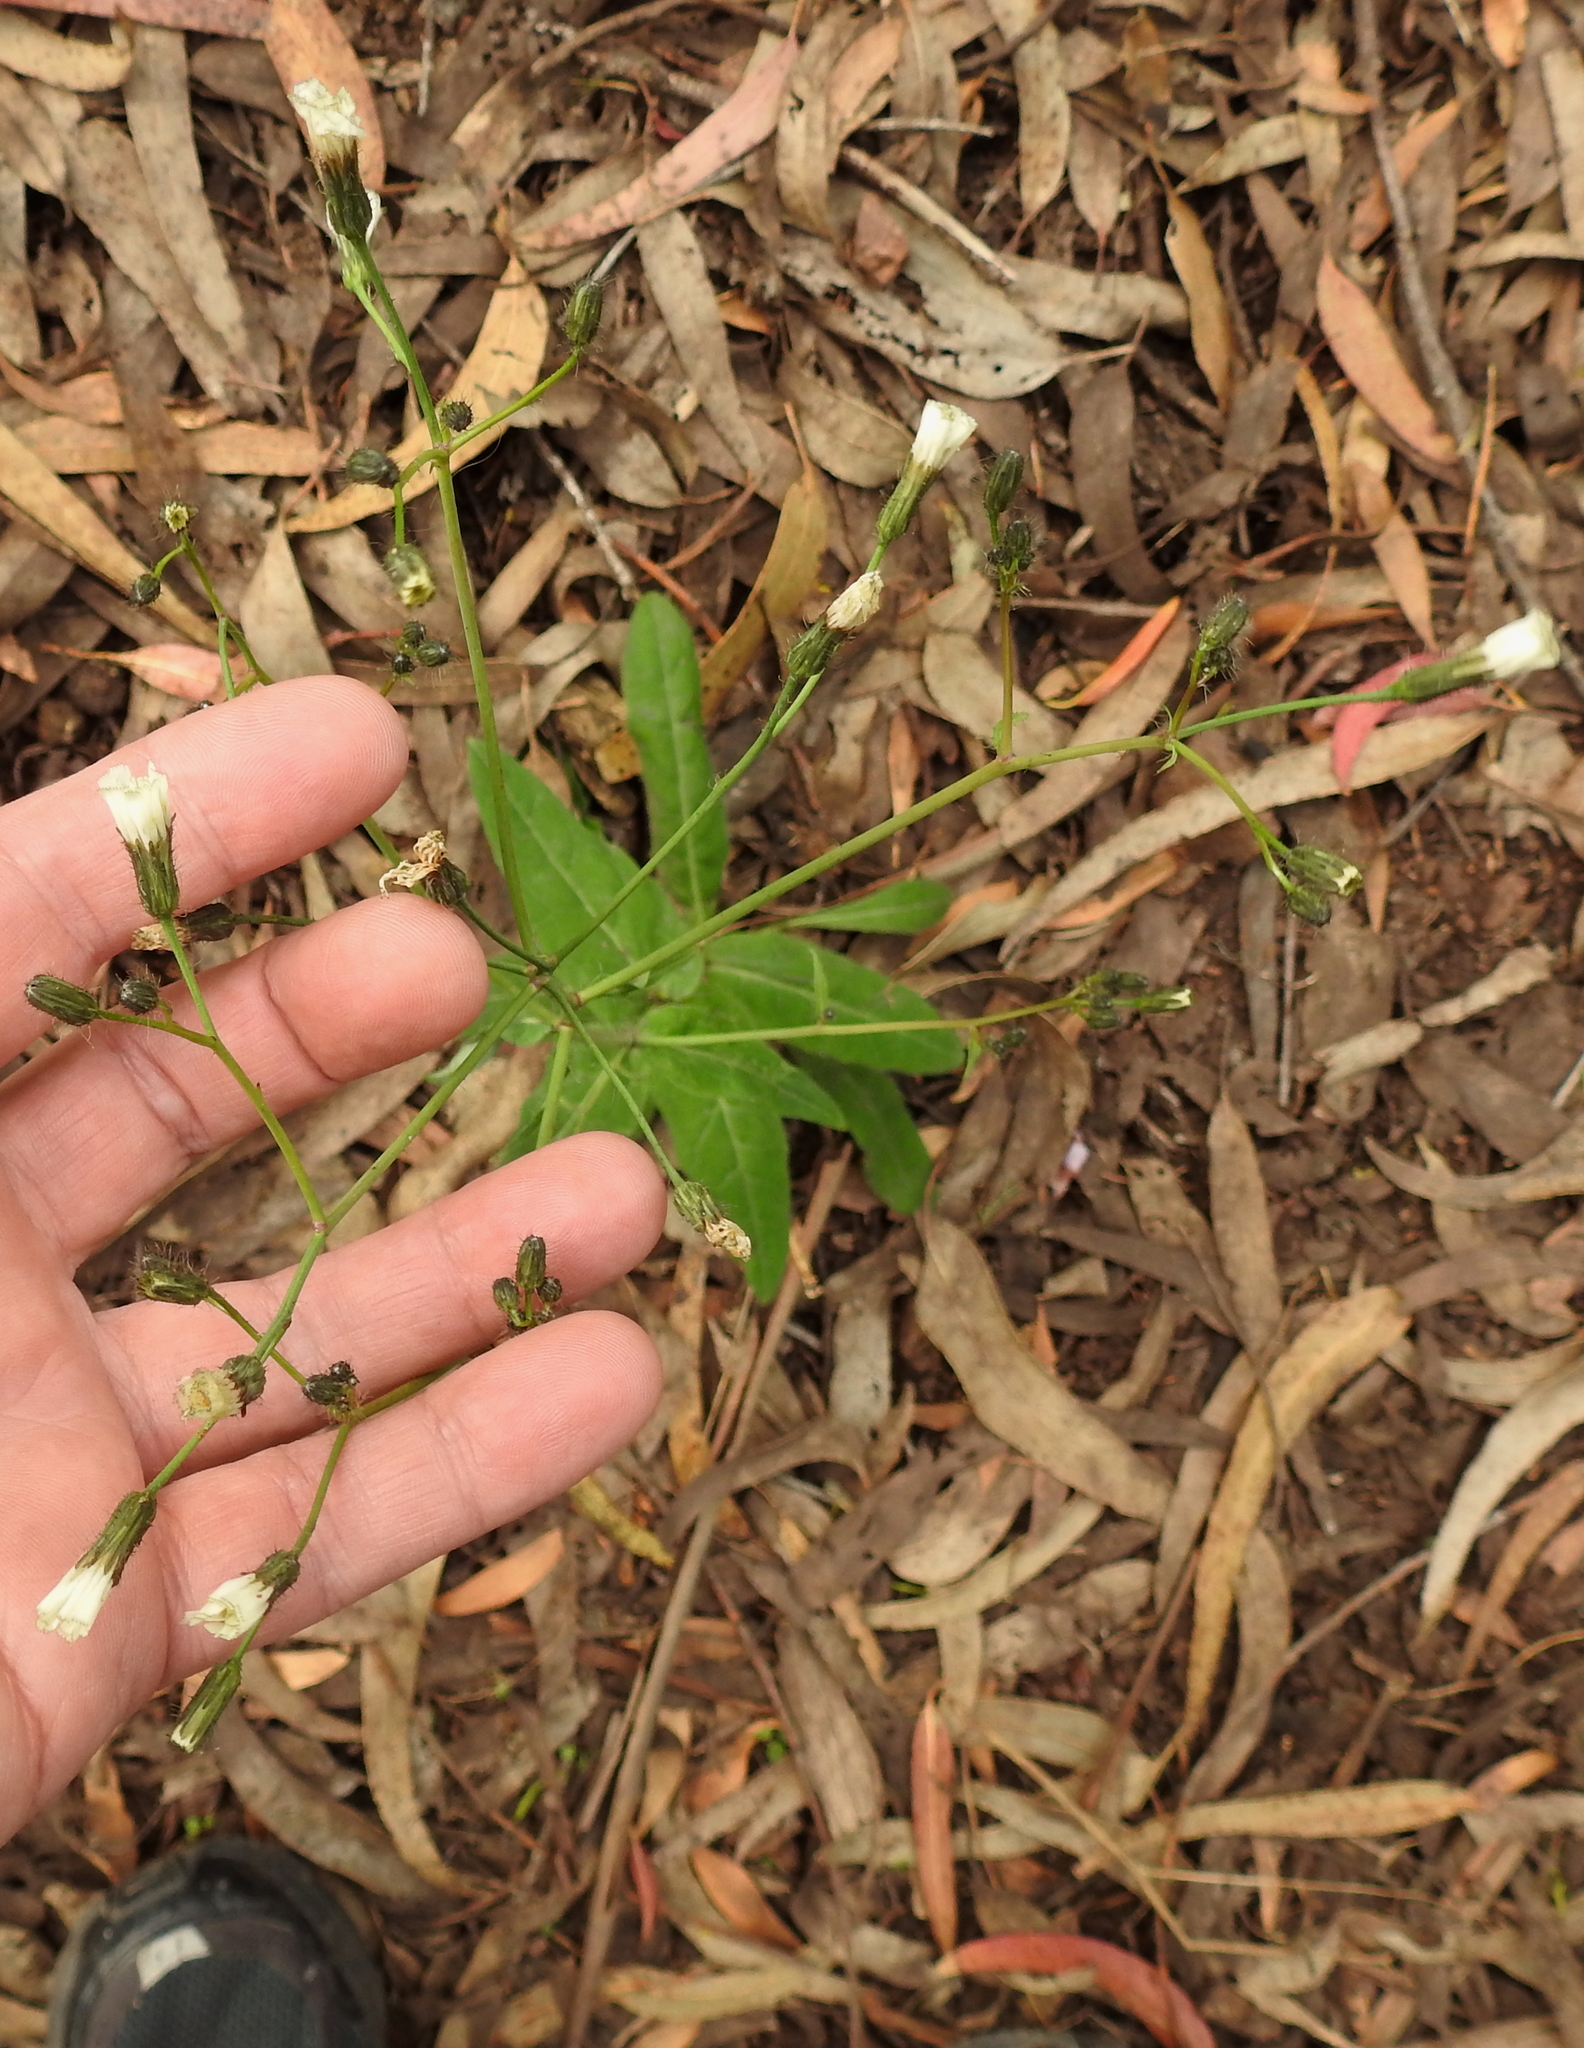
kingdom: Plantae
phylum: Tracheophyta
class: Magnoliopsida
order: Asterales
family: Asteraceae
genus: Hieracium
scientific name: Hieracium albiflorum
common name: White hawkweed
